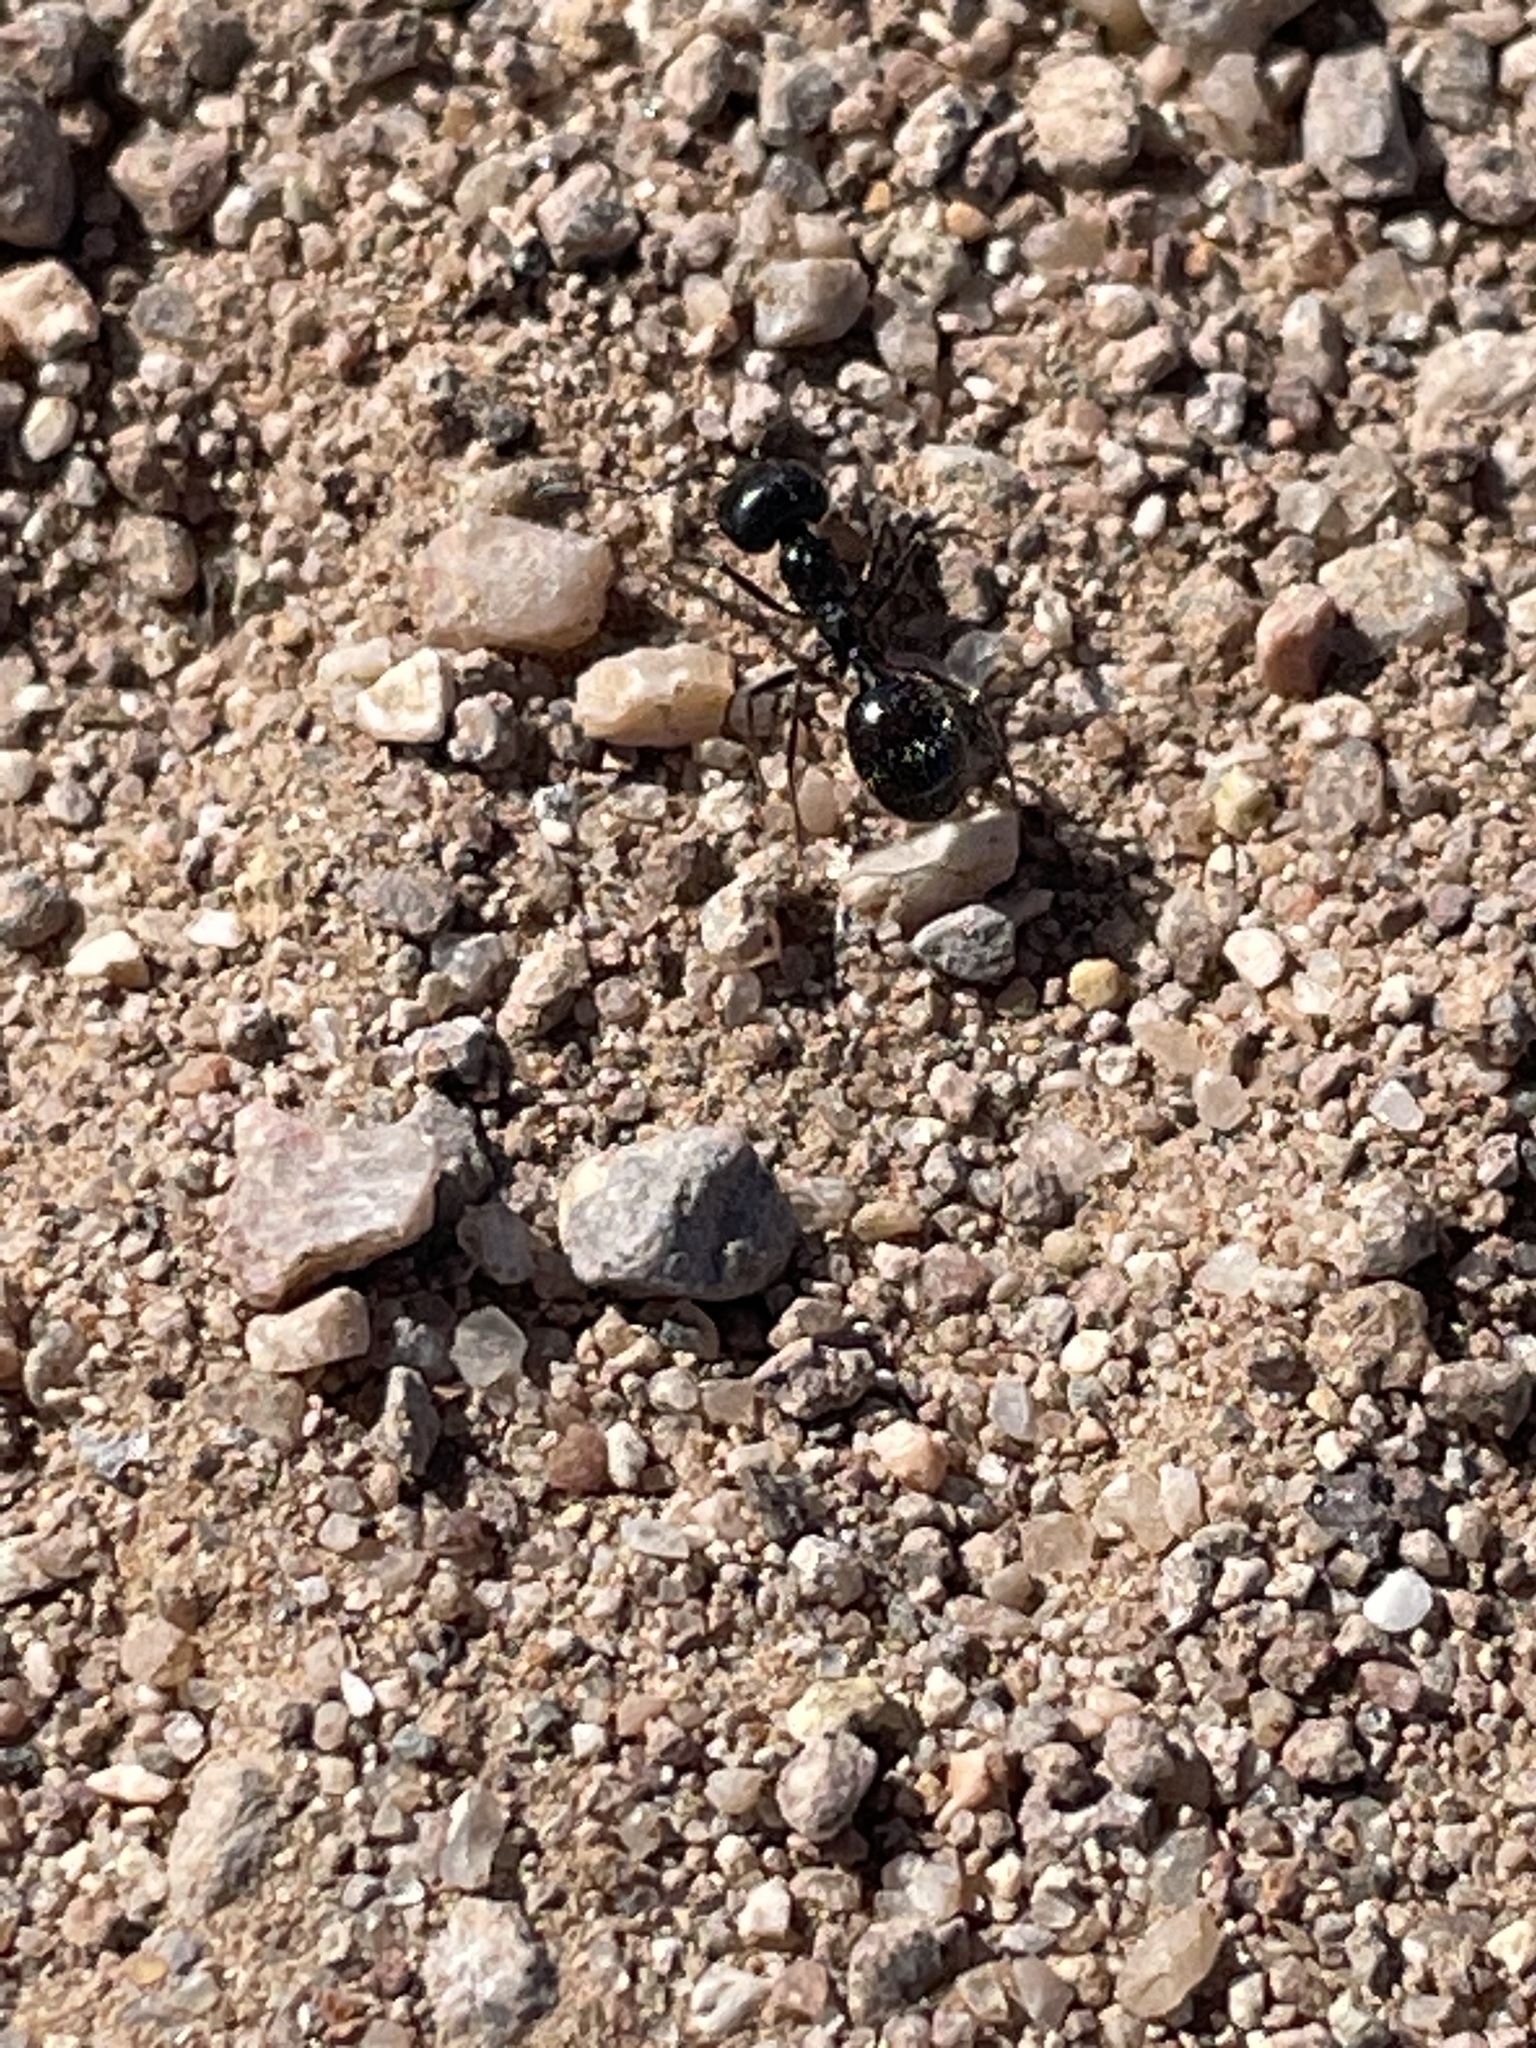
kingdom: Animalia
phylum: Arthropoda
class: Insecta
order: Hymenoptera
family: Formicidae
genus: Messor
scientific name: Messor pergandei
